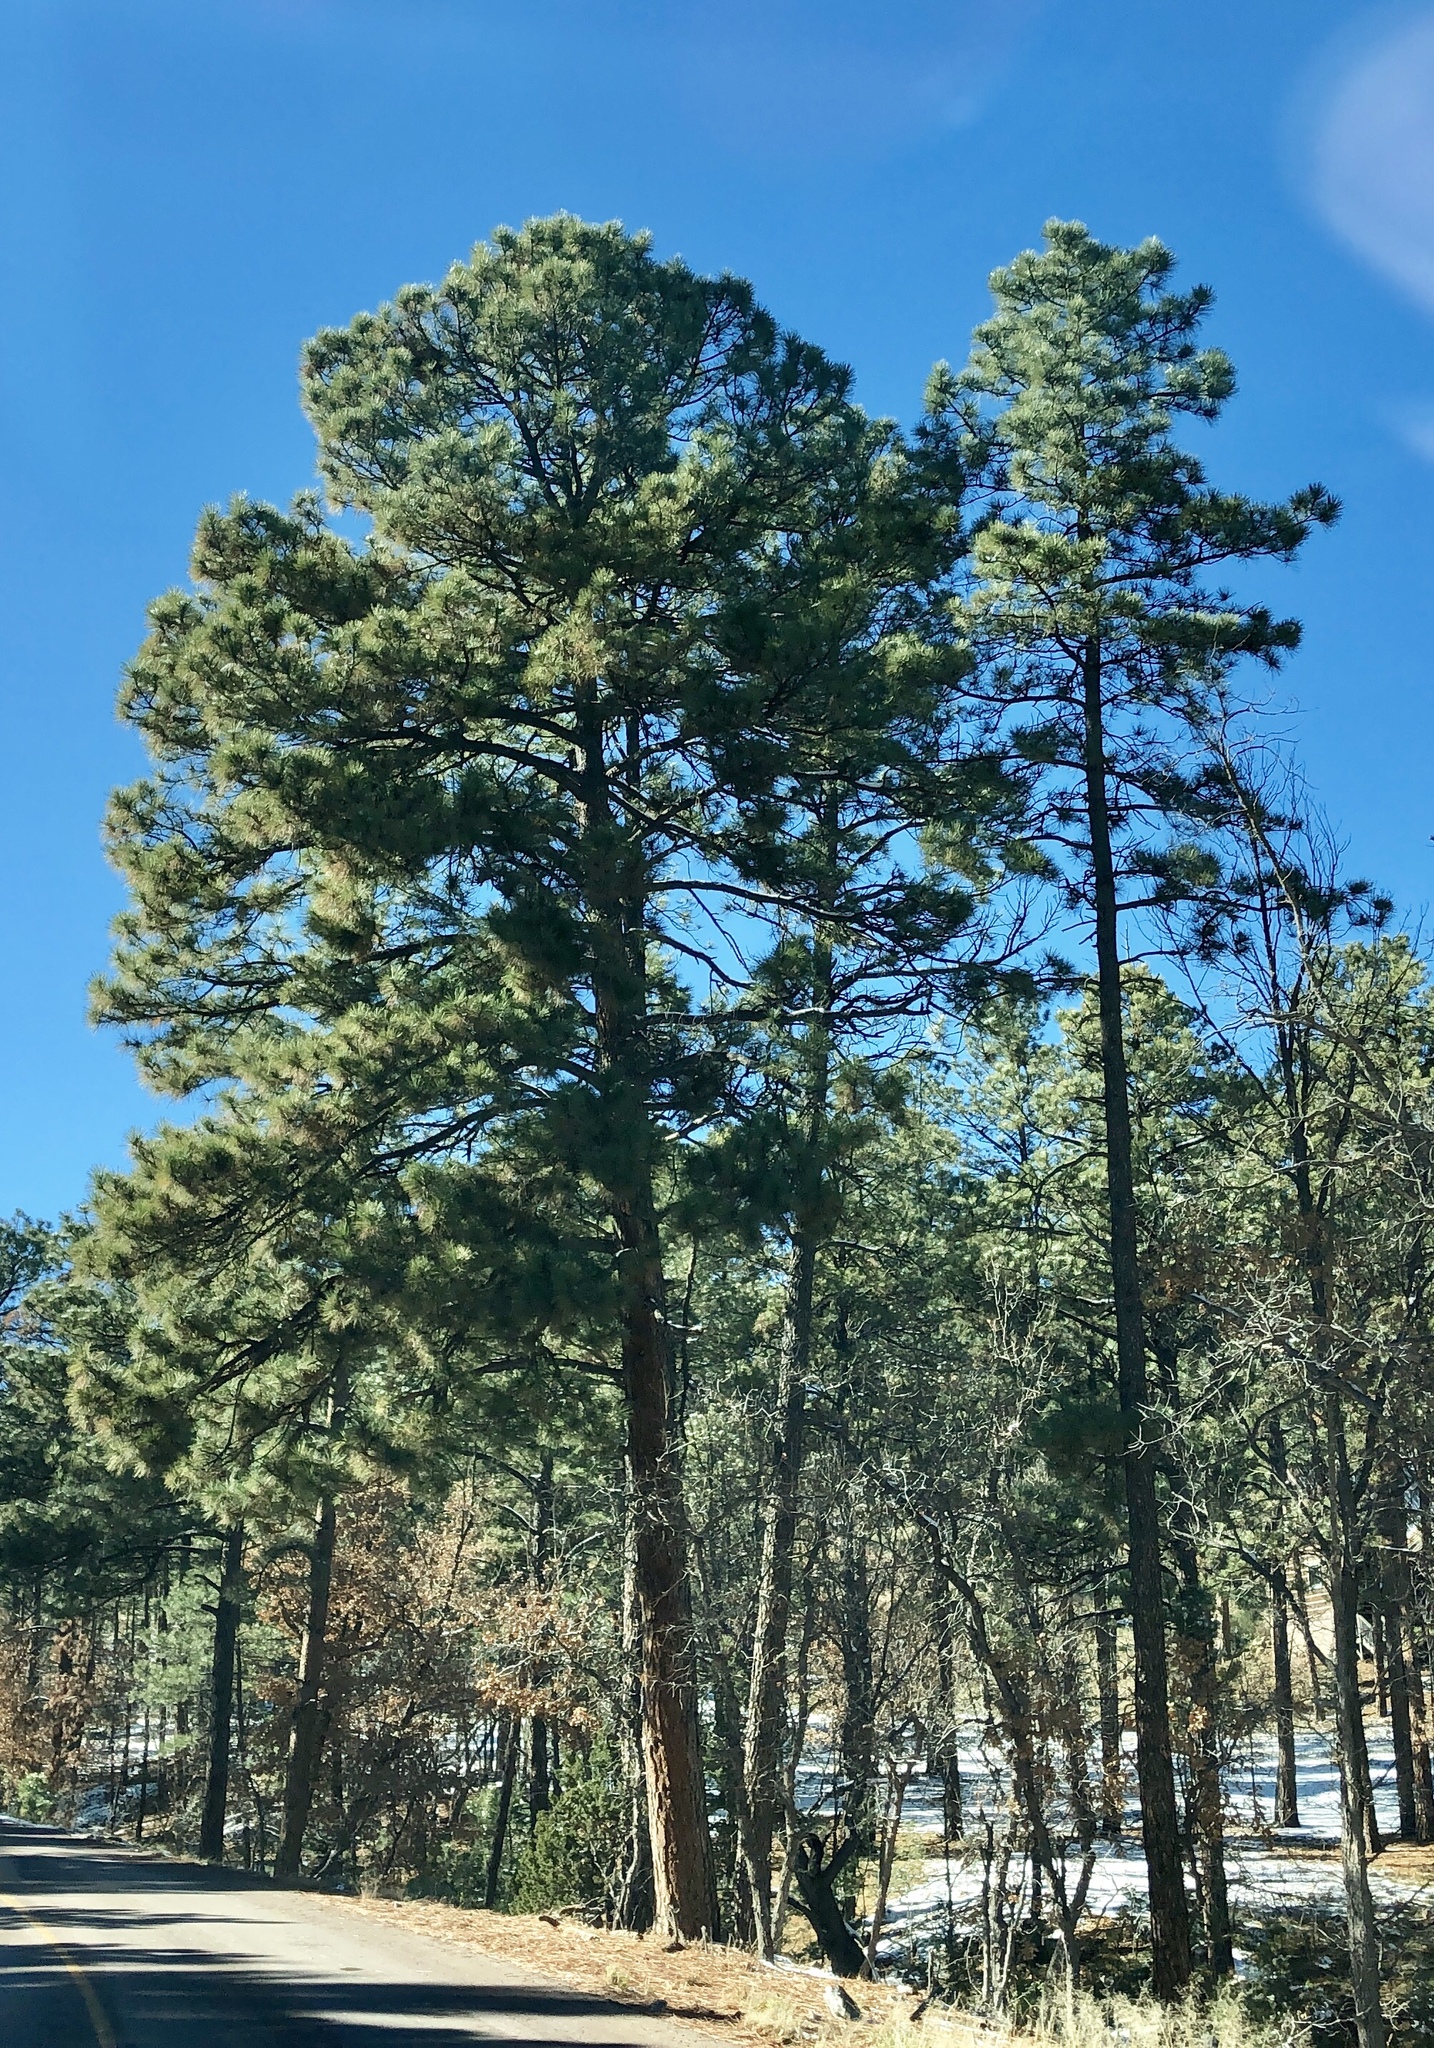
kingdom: Plantae
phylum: Tracheophyta
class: Pinopsida
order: Pinales
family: Pinaceae
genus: Pinus
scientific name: Pinus ponderosa
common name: Western yellow-pine
